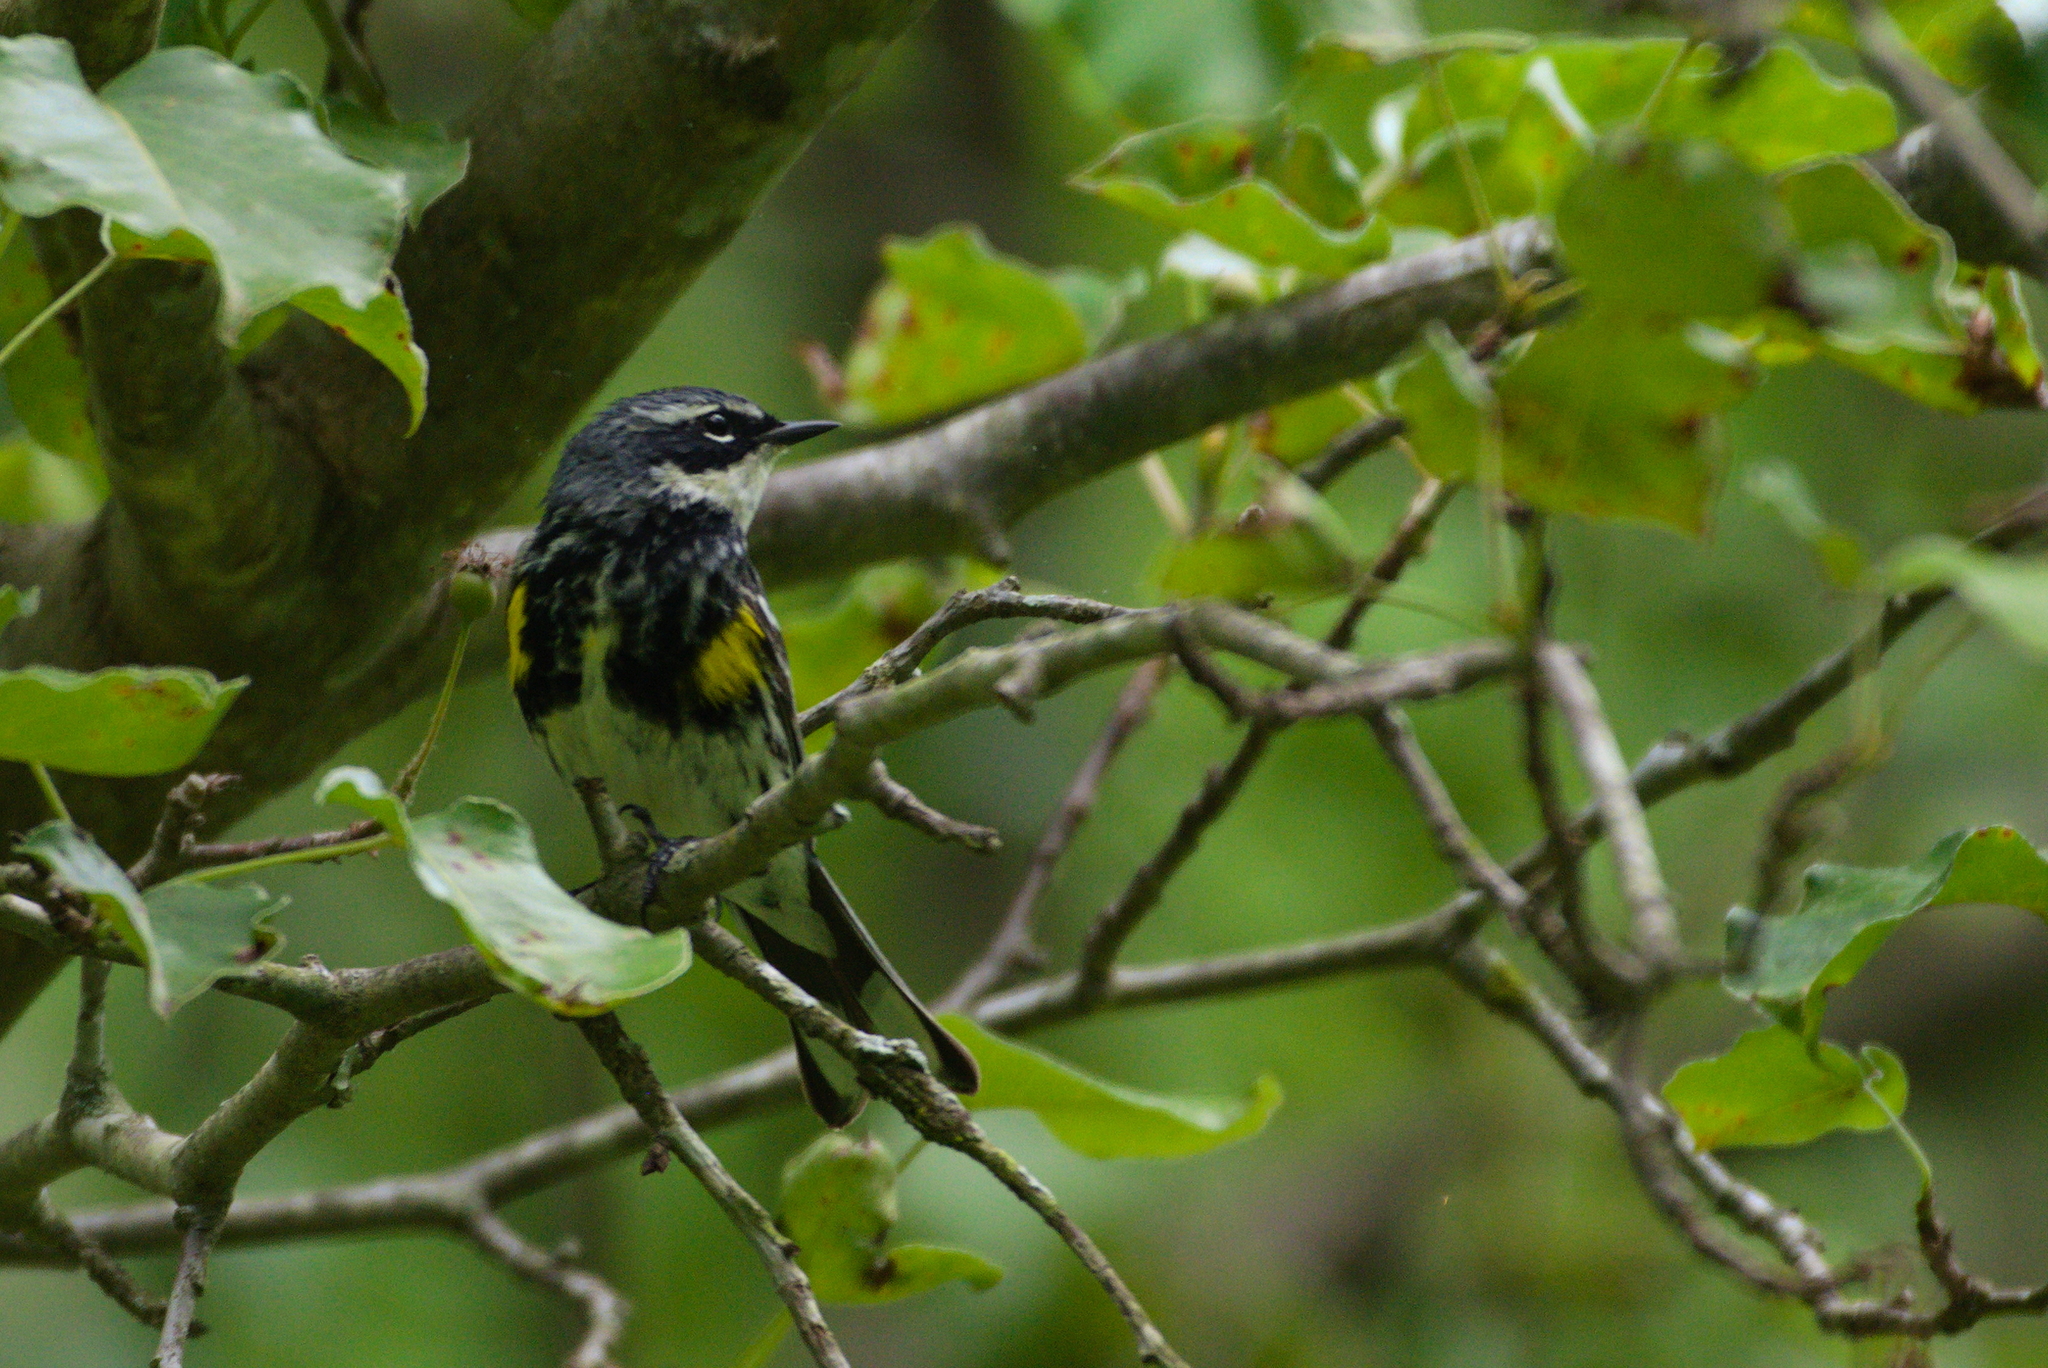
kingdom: Animalia
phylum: Chordata
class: Aves
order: Passeriformes
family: Parulidae
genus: Setophaga
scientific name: Setophaga coronata
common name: Myrtle warbler
